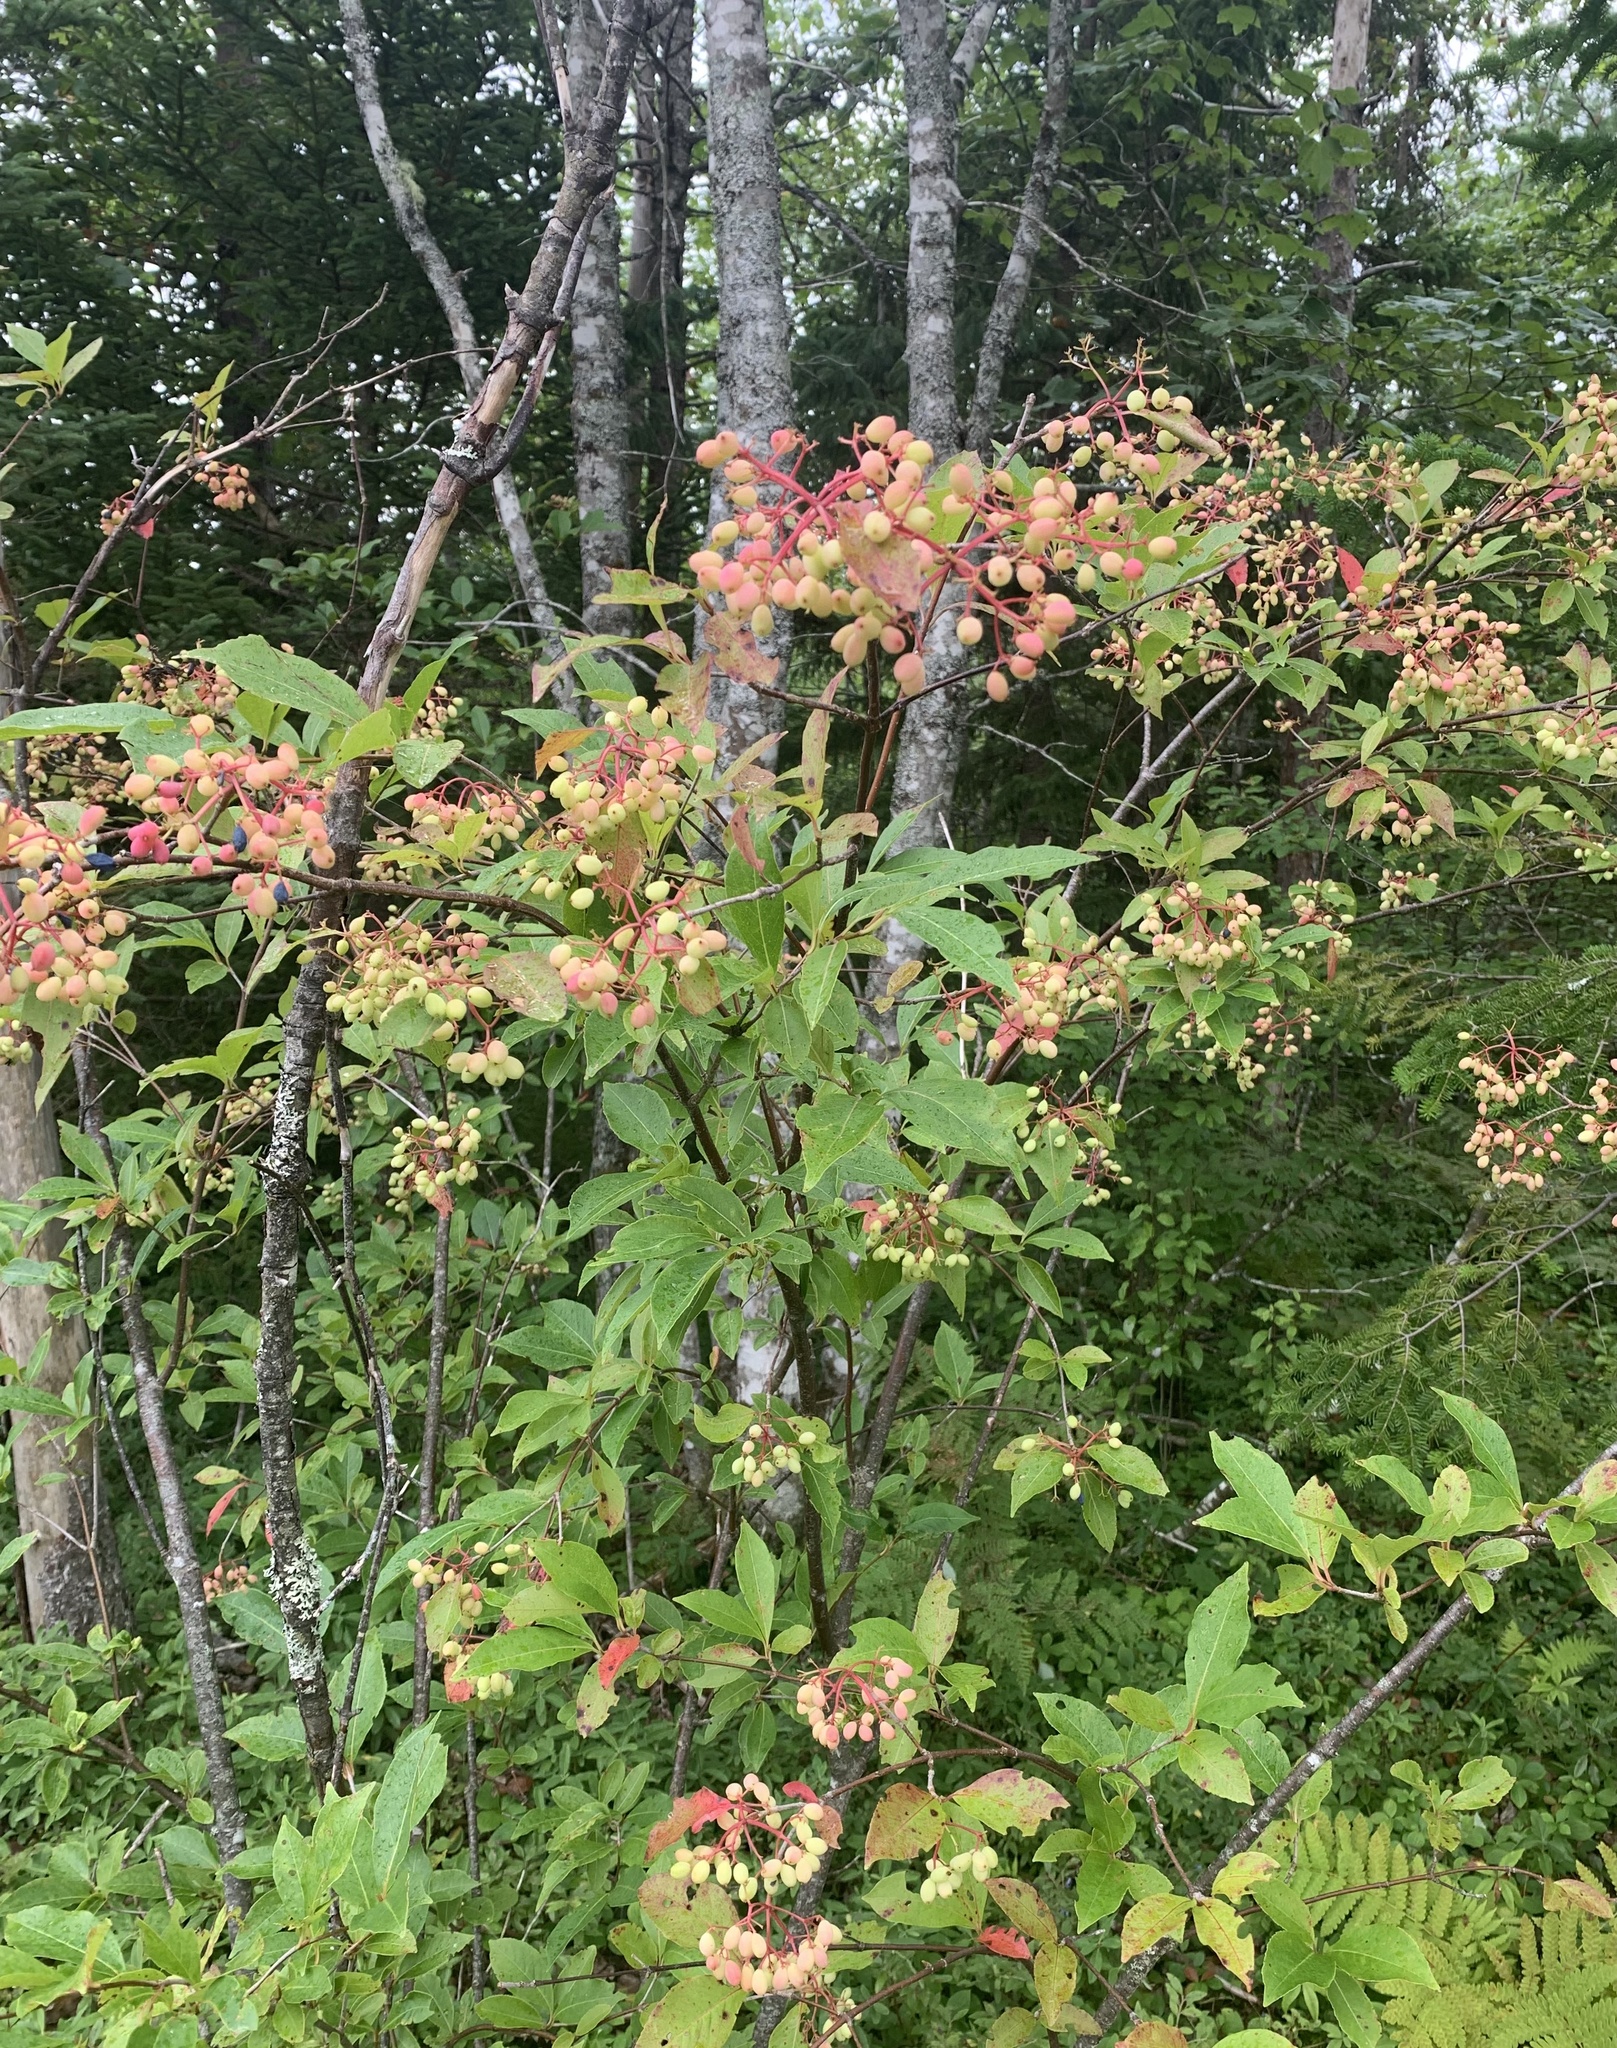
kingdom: Plantae
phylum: Tracheophyta
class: Magnoliopsida
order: Dipsacales
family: Viburnaceae
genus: Viburnum
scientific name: Viburnum cassinoides
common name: Swamp haw
